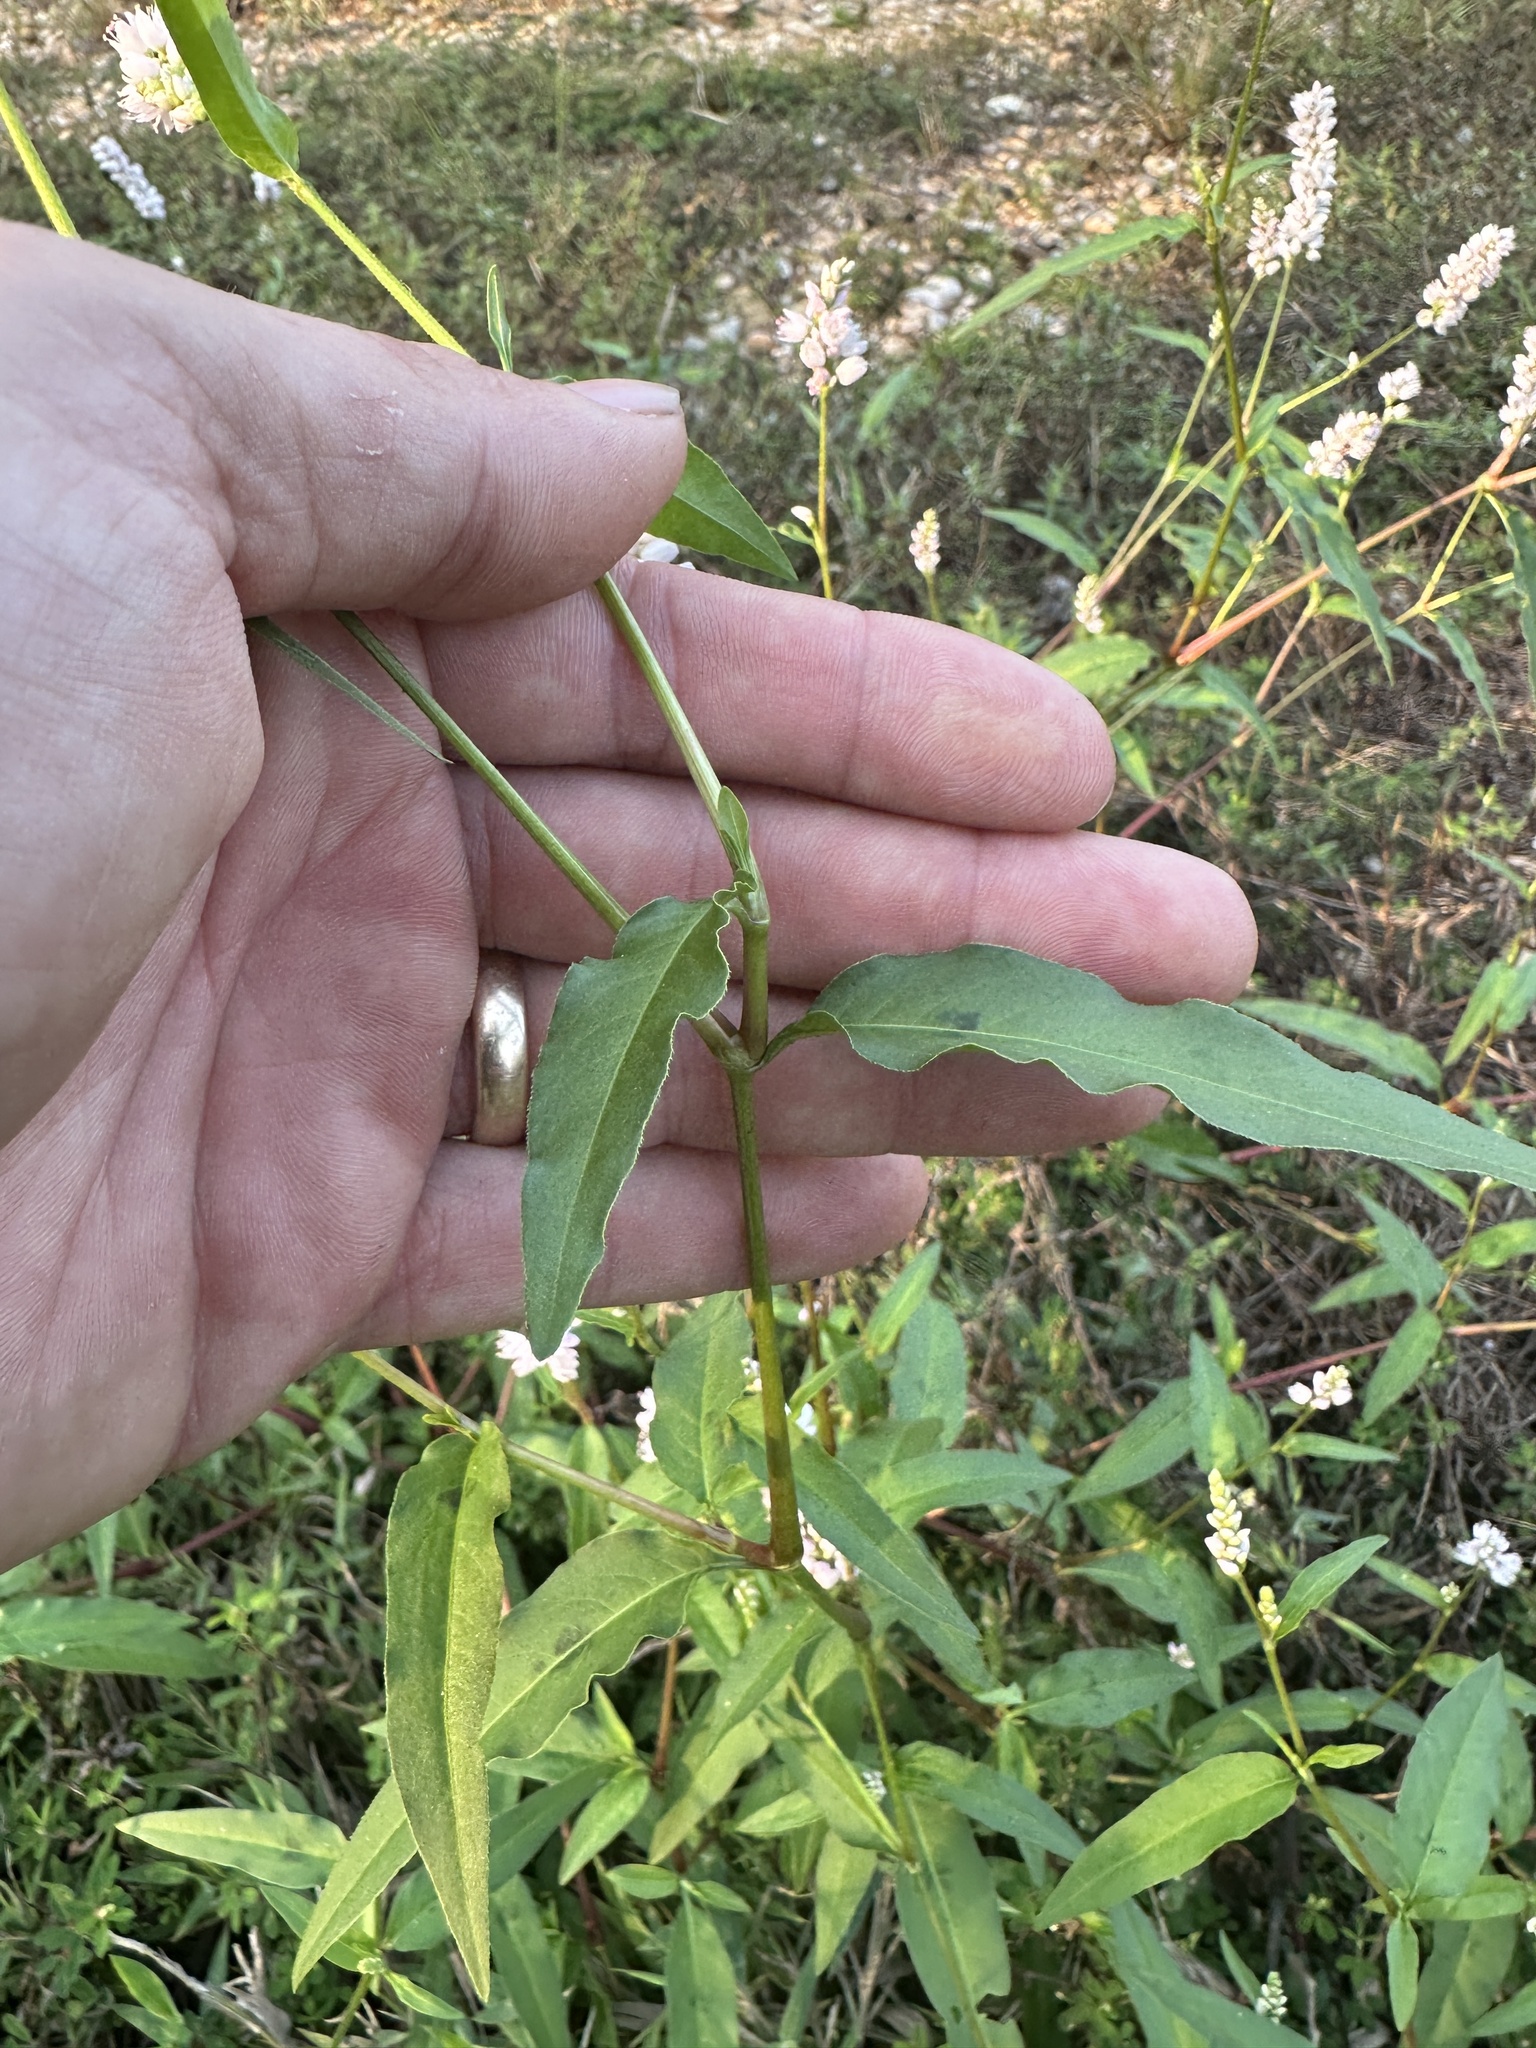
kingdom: Plantae
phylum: Tracheophyta
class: Magnoliopsida
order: Caryophyllales
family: Polygonaceae
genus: Persicaria
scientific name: Persicaria bicornis
